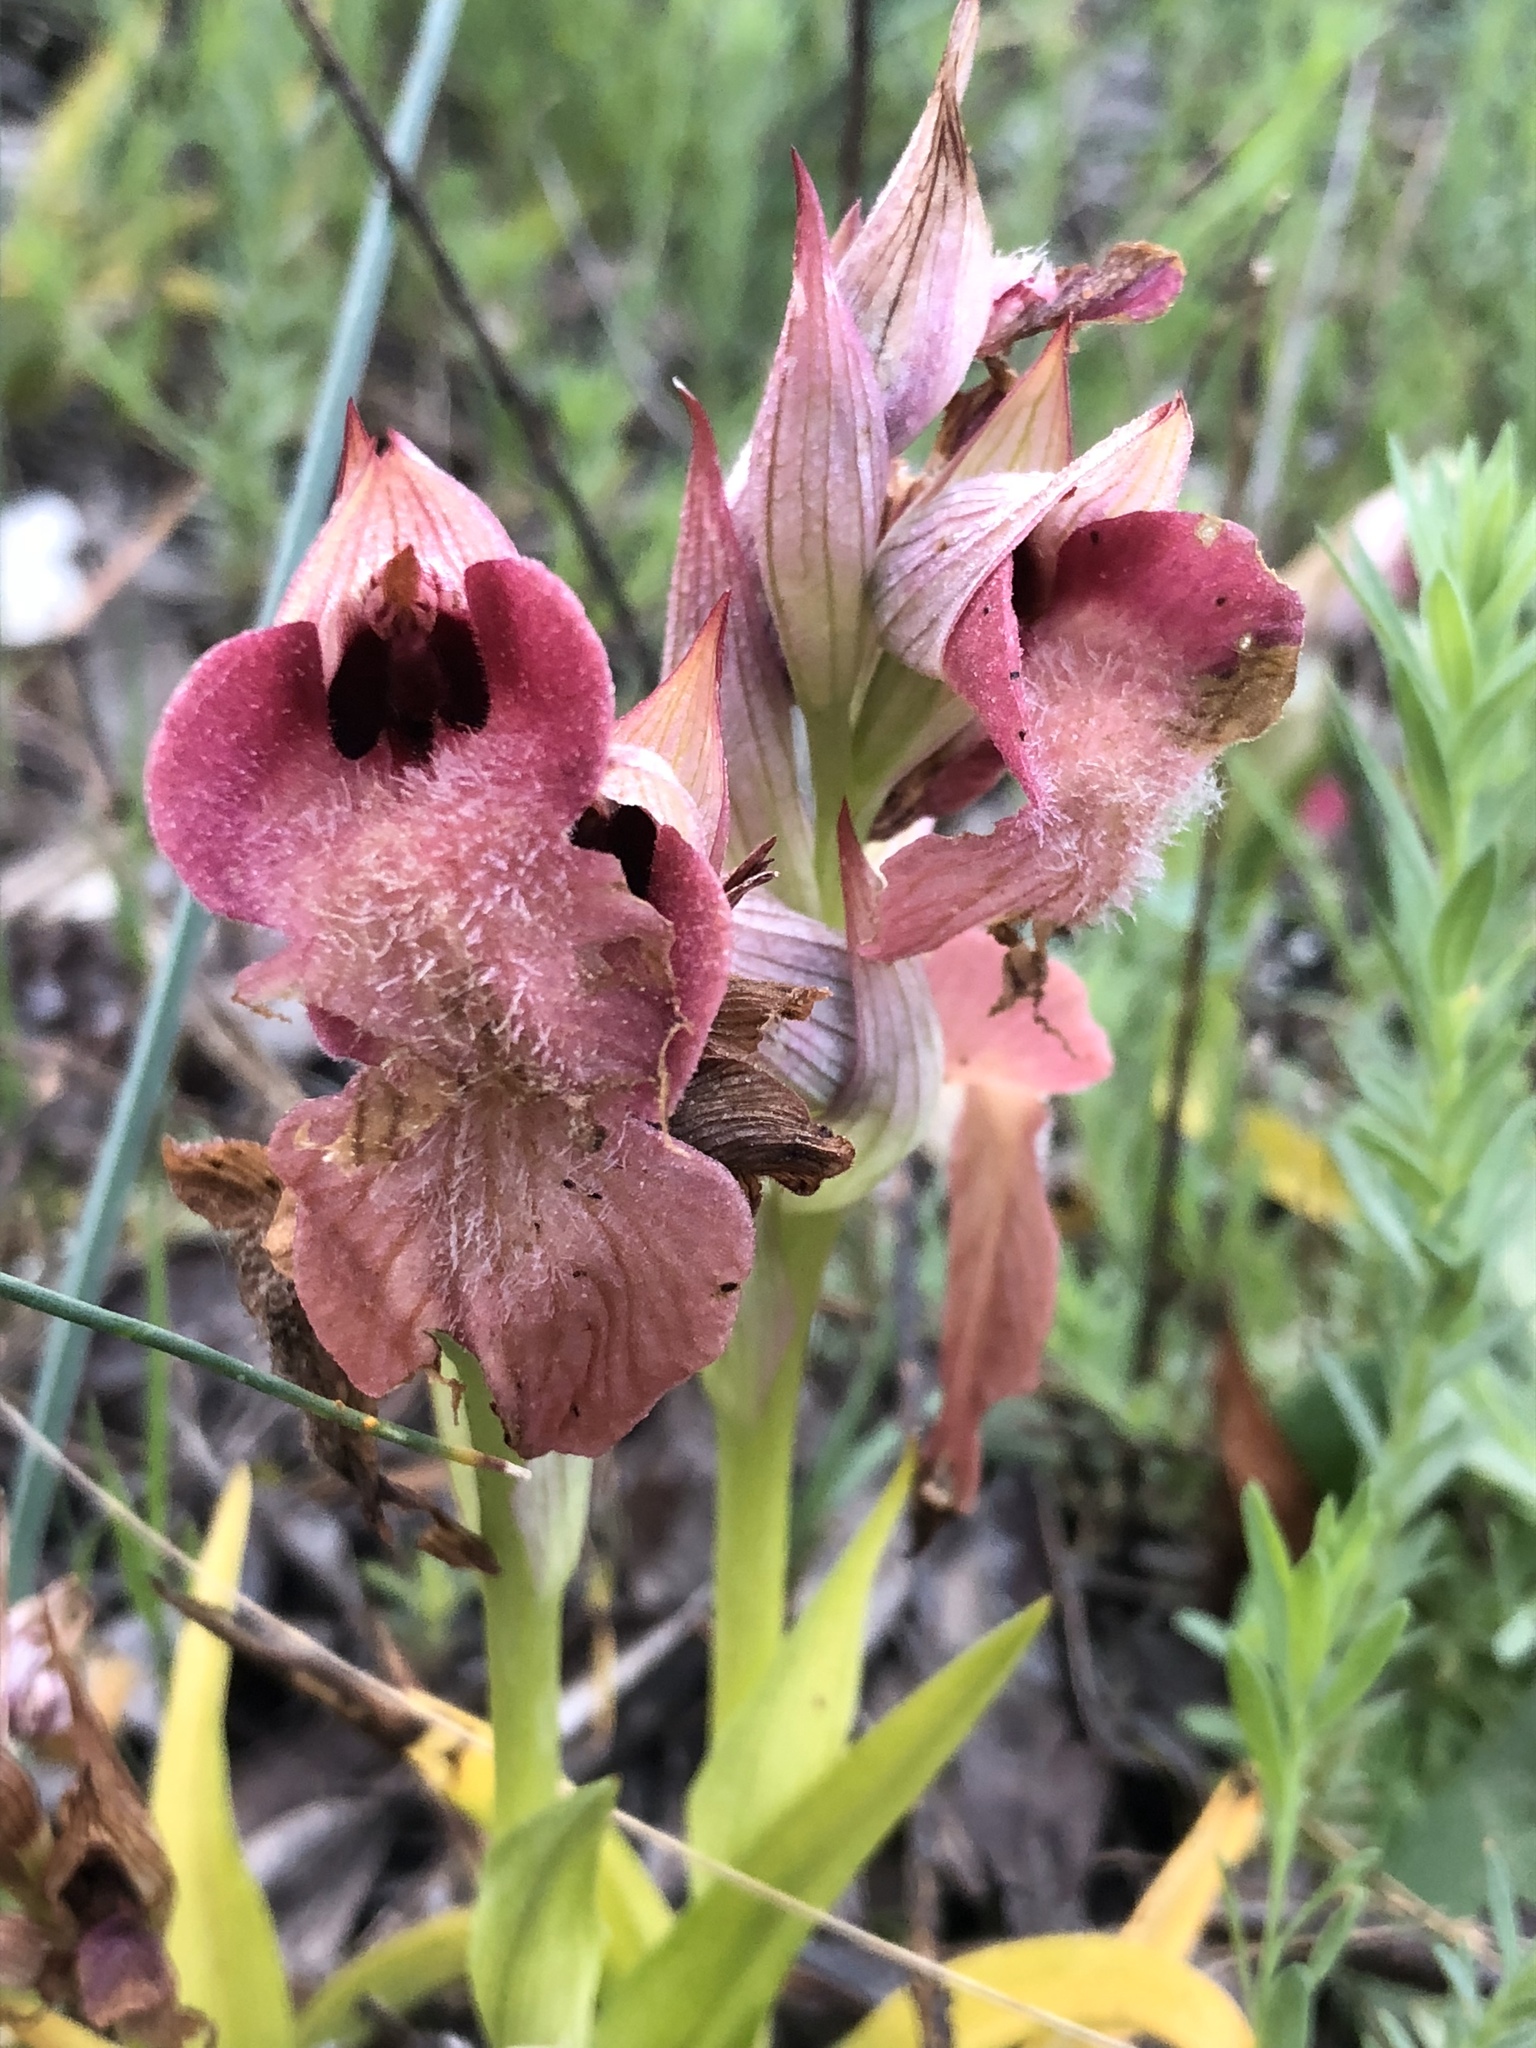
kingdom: Plantae
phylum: Tracheophyta
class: Liliopsida
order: Asparagales
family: Orchidaceae
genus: Serapias
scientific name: Serapias neglecta
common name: Neglected serapias
